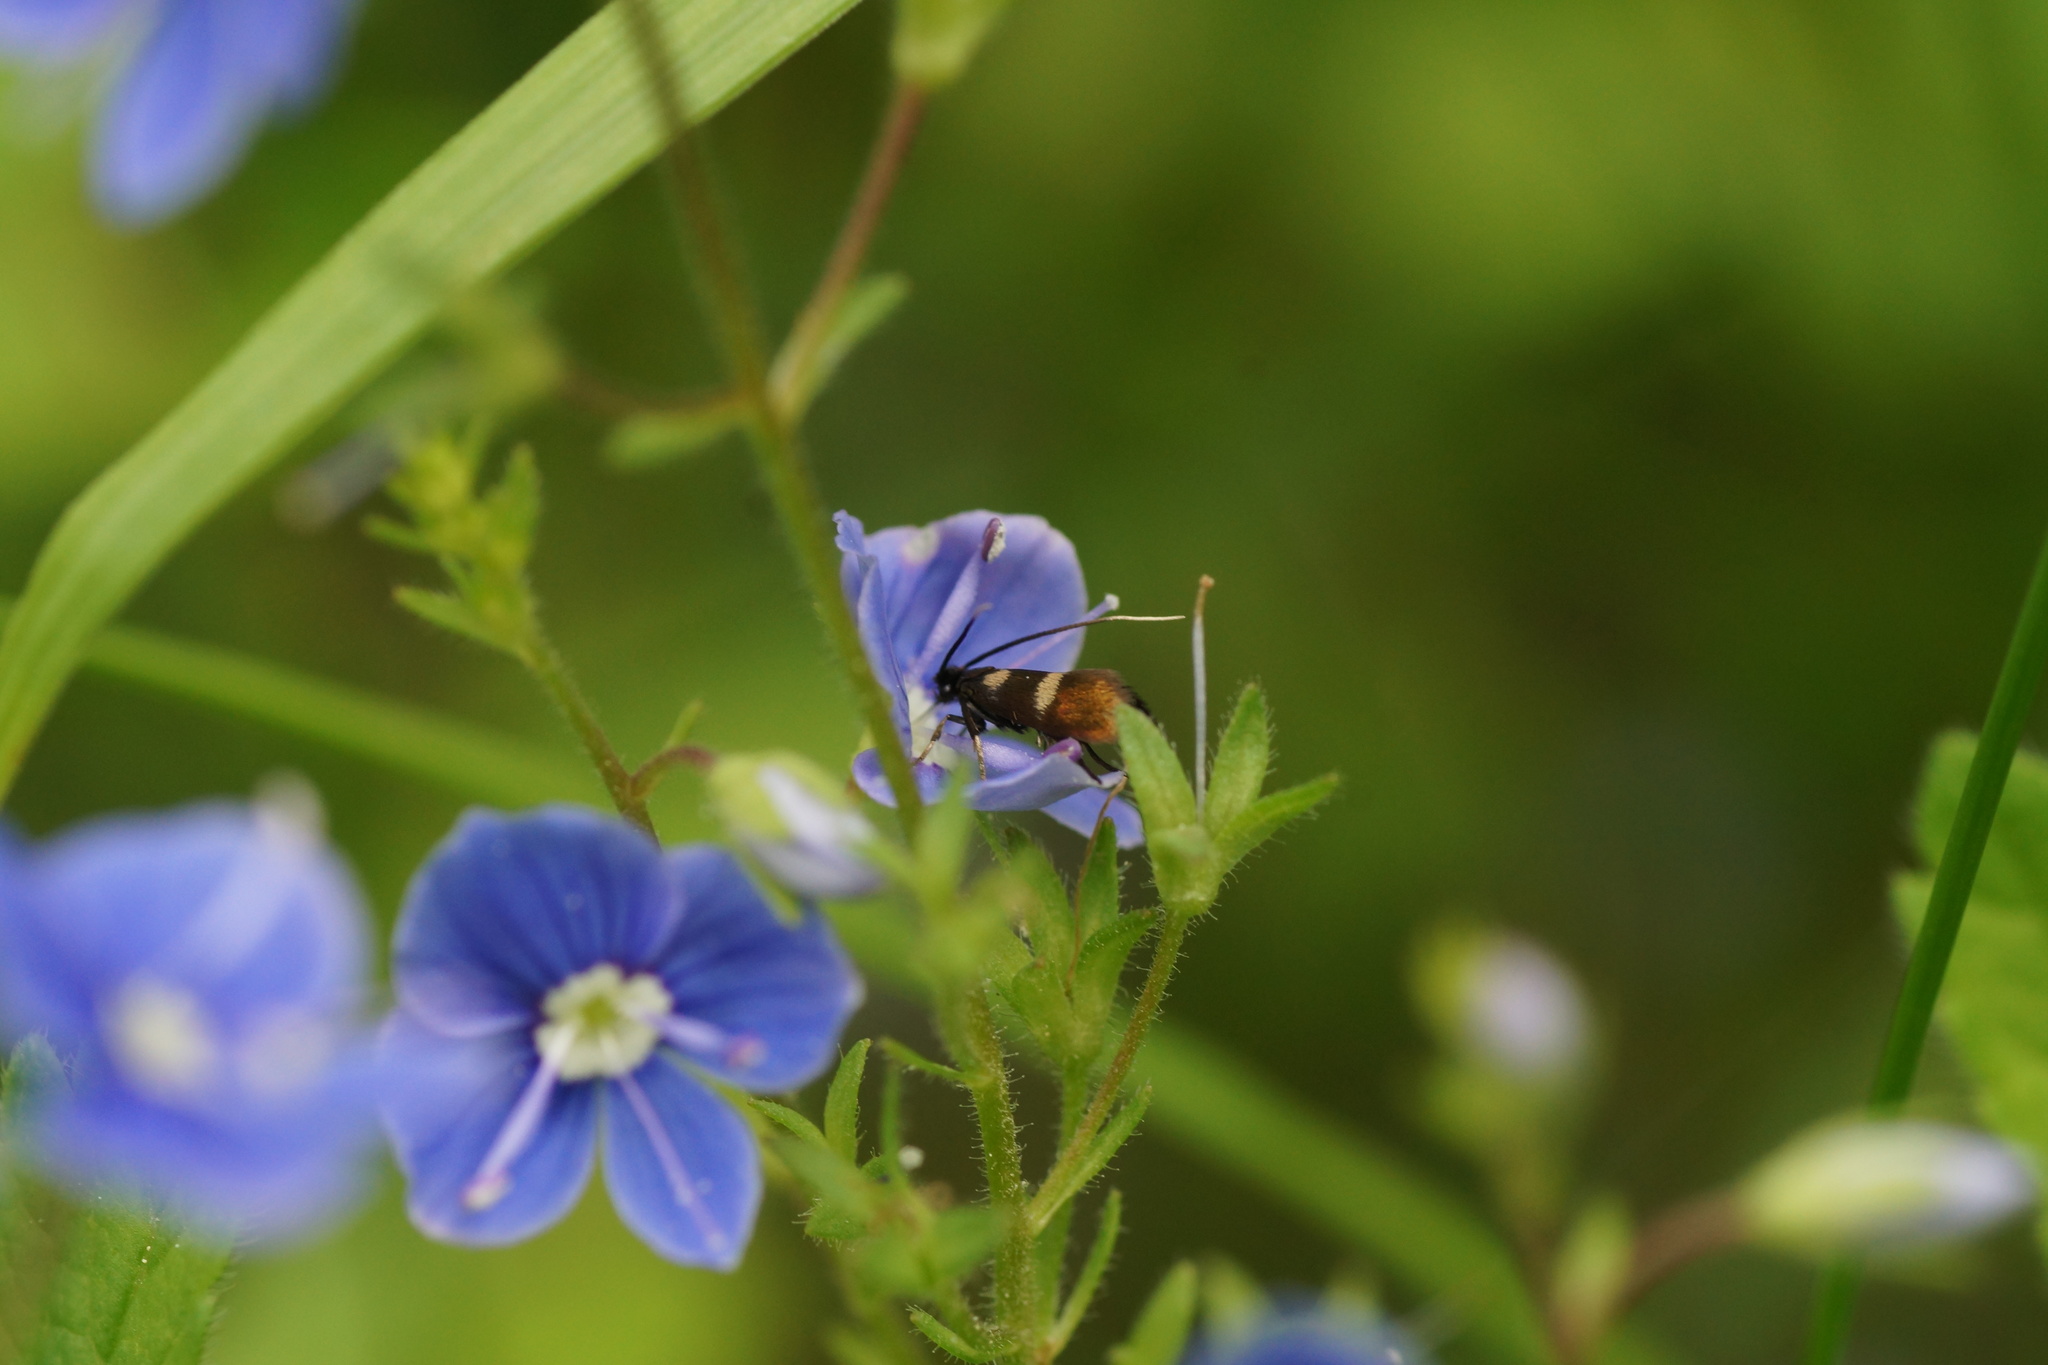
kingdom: Plantae
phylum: Tracheophyta
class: Magnoliopsida
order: Lamiales
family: Plantaginaceae
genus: Veronica
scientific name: Veronica chamaedrys
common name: Germander speedwell
